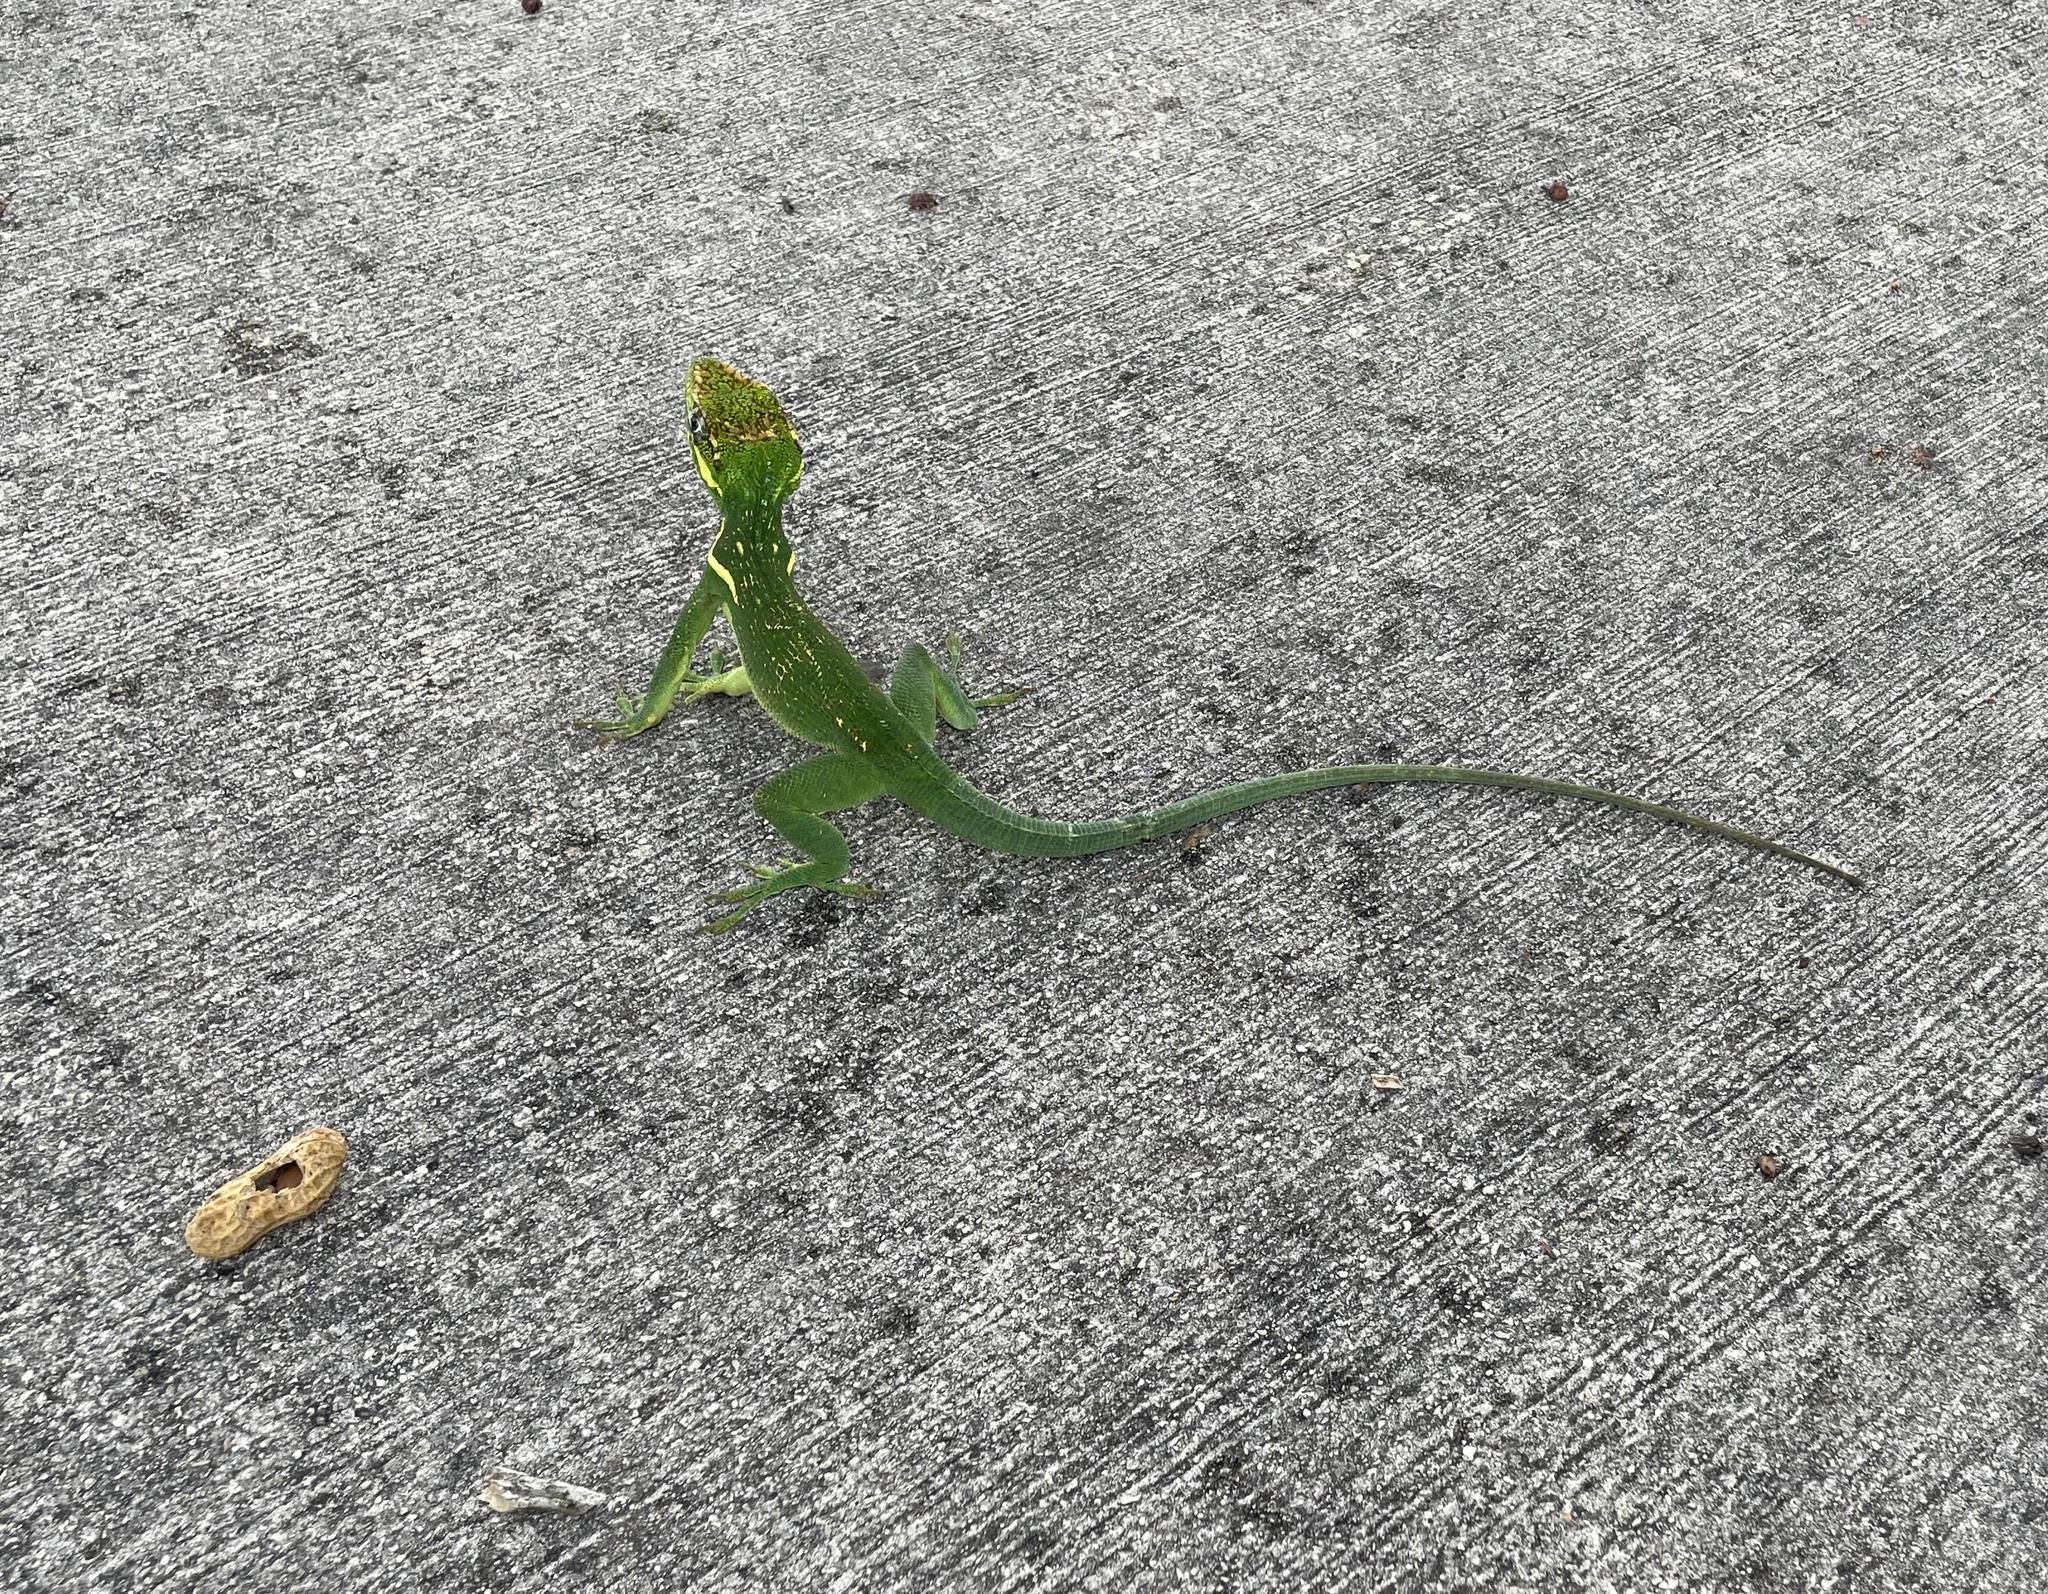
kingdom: Animalia
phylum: Chordata
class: Squamata
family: Dactyloidae
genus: Anolis
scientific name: Anolis equestris
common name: Knight anole
